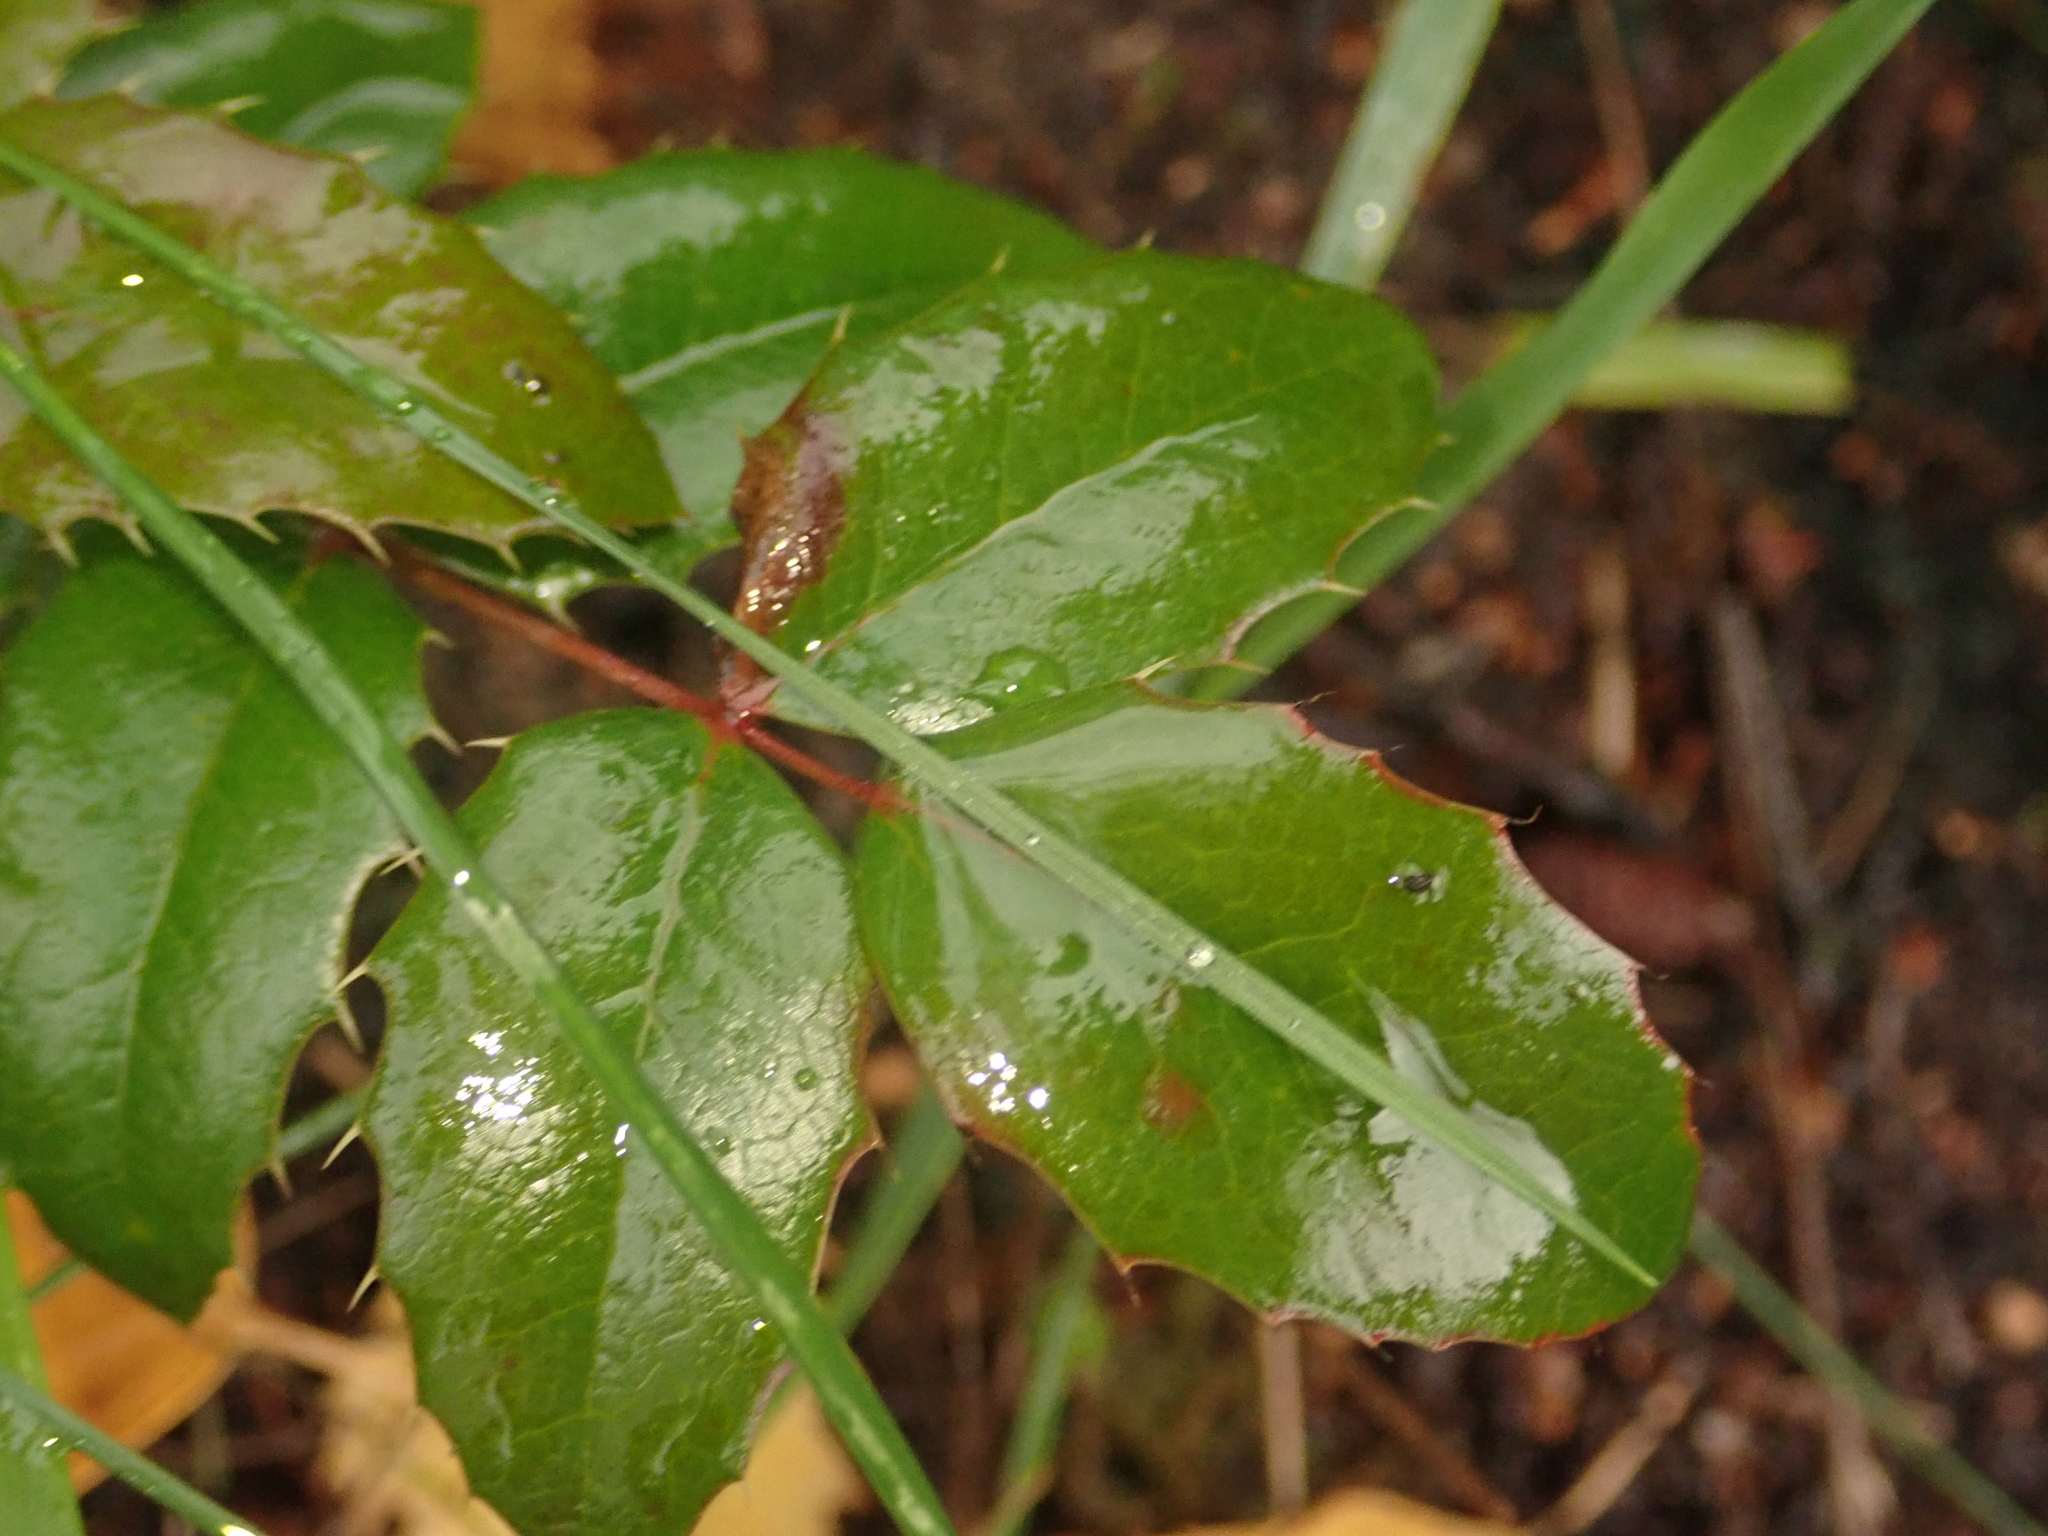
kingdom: Plantae
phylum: Tracheophyta
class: Magnoliopsida
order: Ranunculales
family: Berberidaceae
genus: Mahonia
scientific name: Mahonia aquifolium
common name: Oregon-grape
